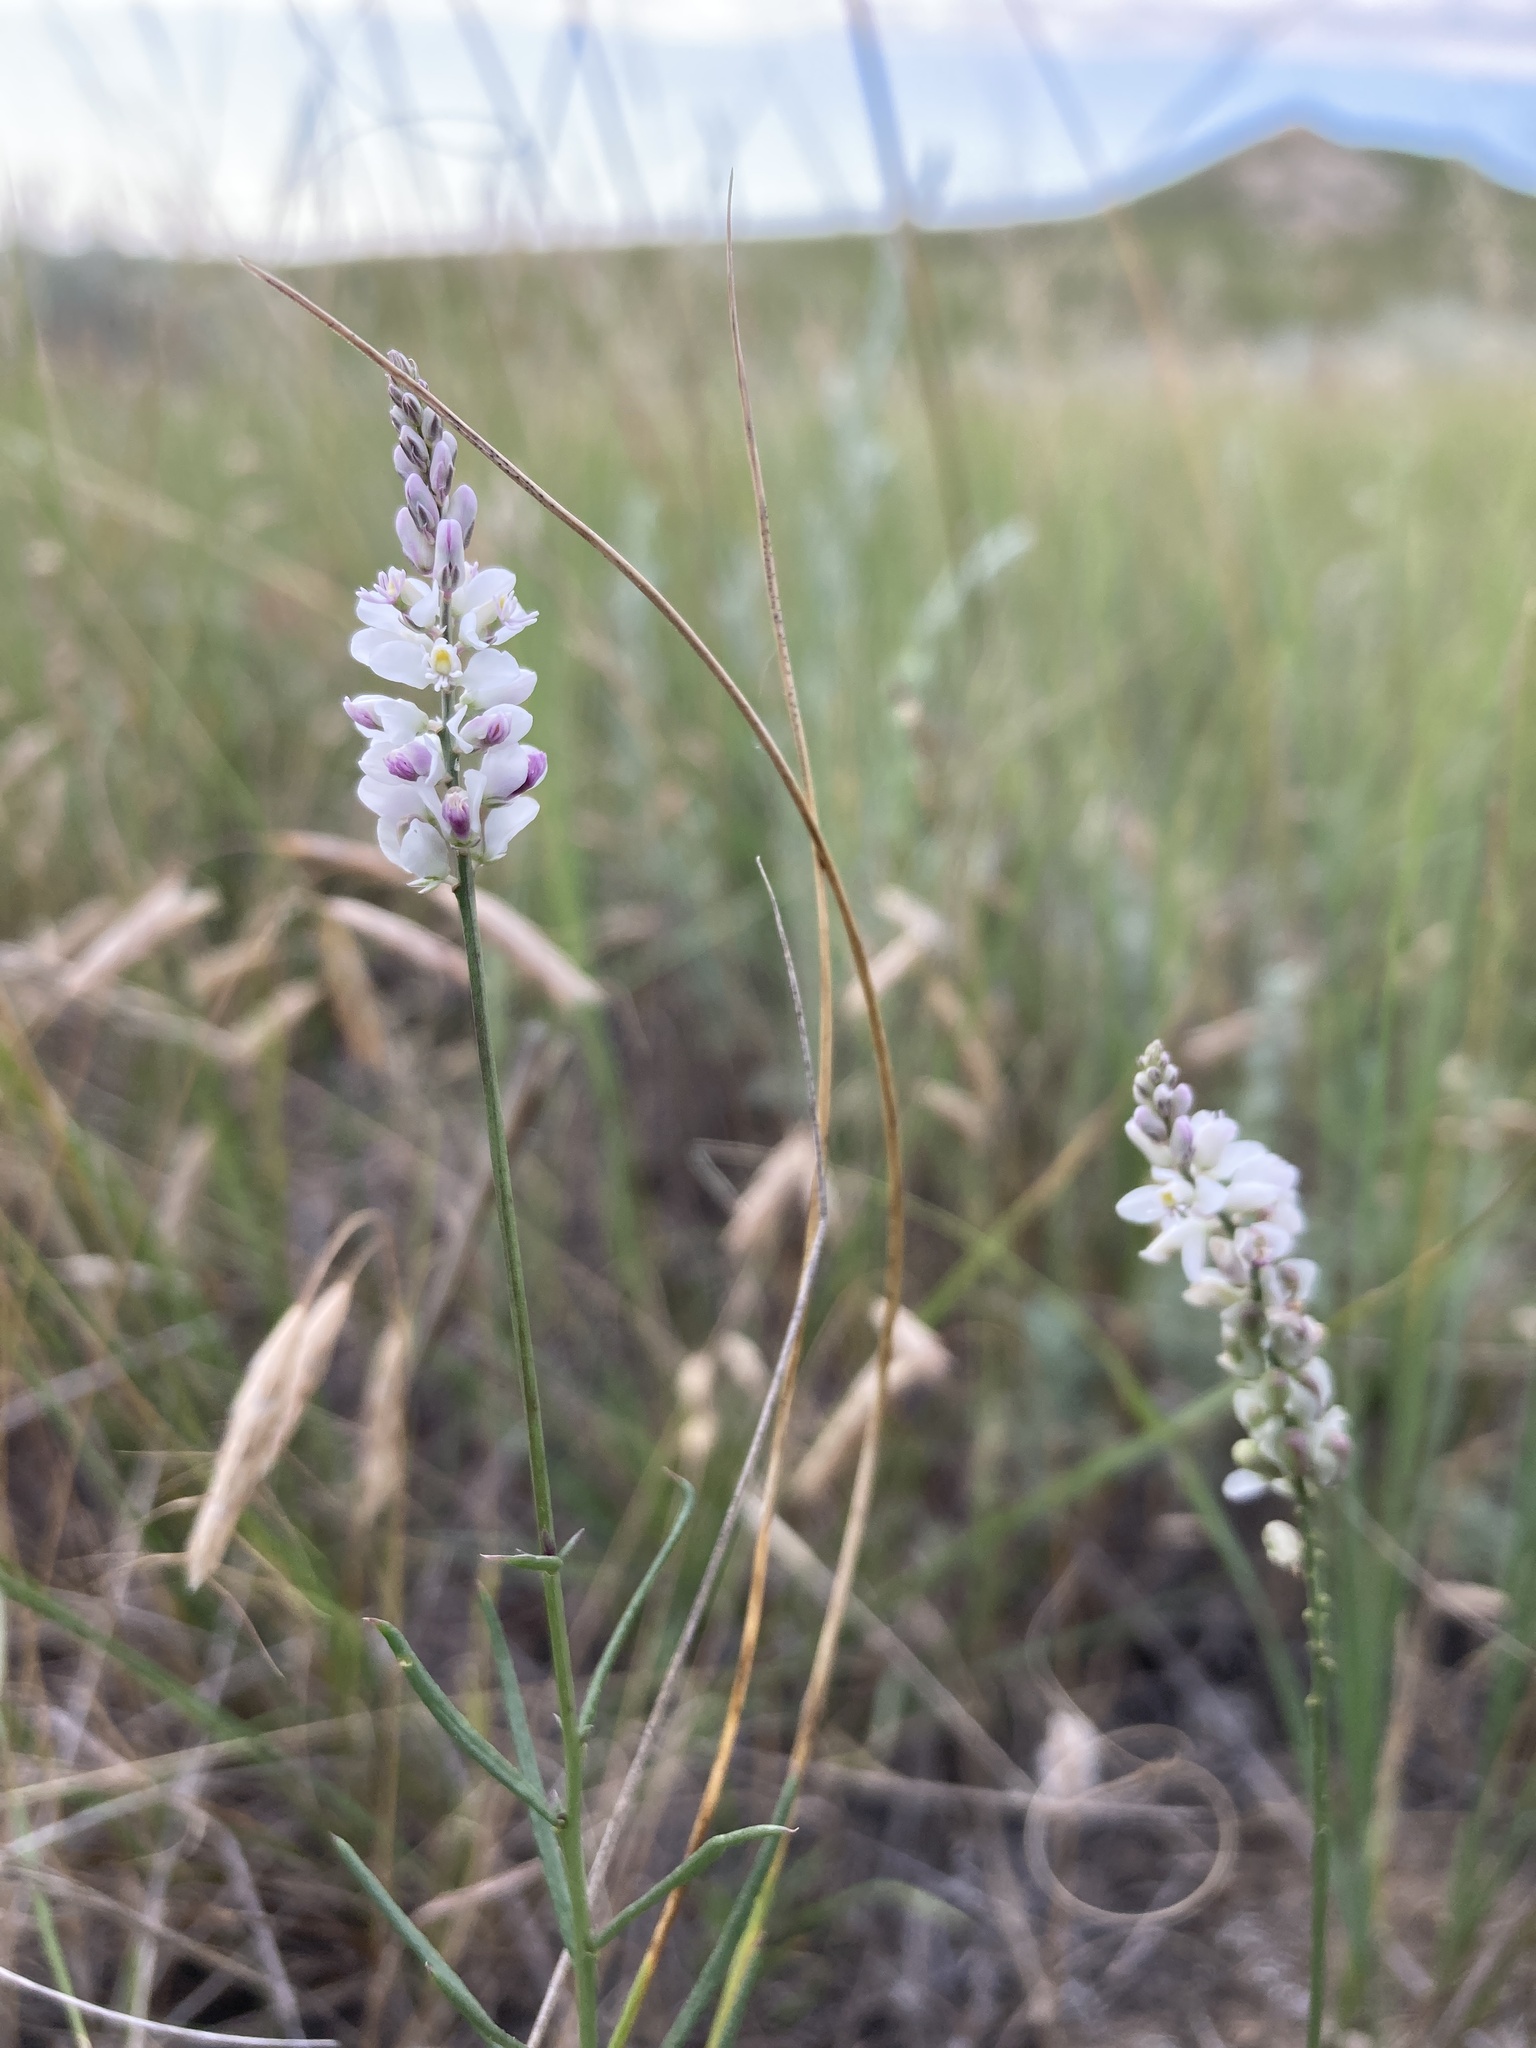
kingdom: Plantae
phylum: Tracheophyta
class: Magnoliopsida
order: Fabales
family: Polygalaceae
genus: Polygala
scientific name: Polygala alba
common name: White milkwort
